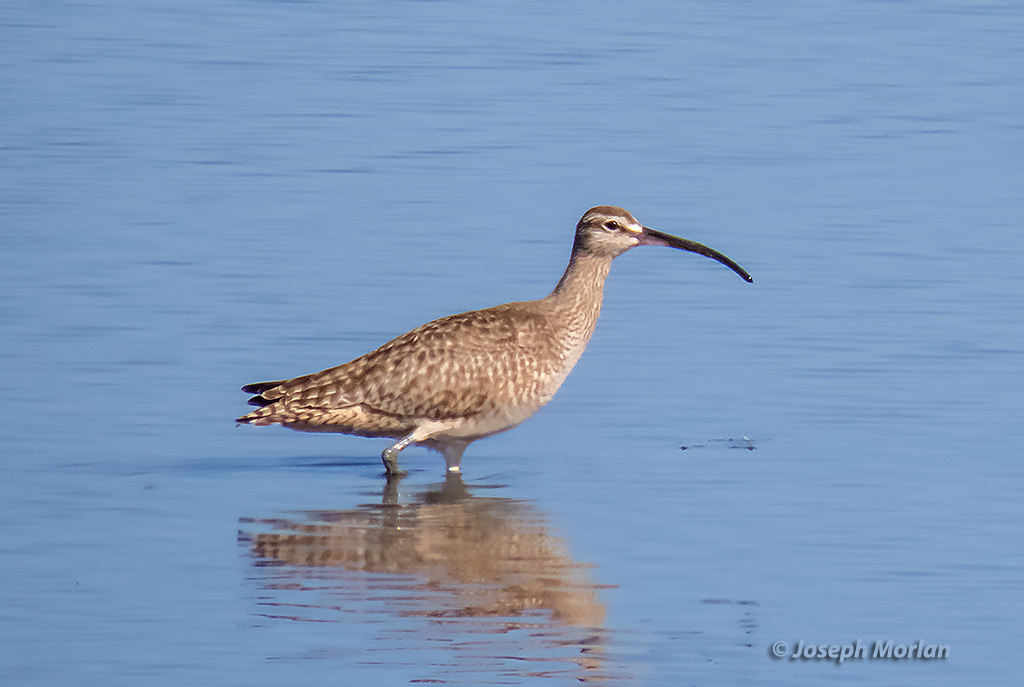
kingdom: Animalia
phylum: Chordata
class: Aves
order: Charadriiformes
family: Scolopacidae
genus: Numenius
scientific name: Numenius phaeopus
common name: Whimbrel
